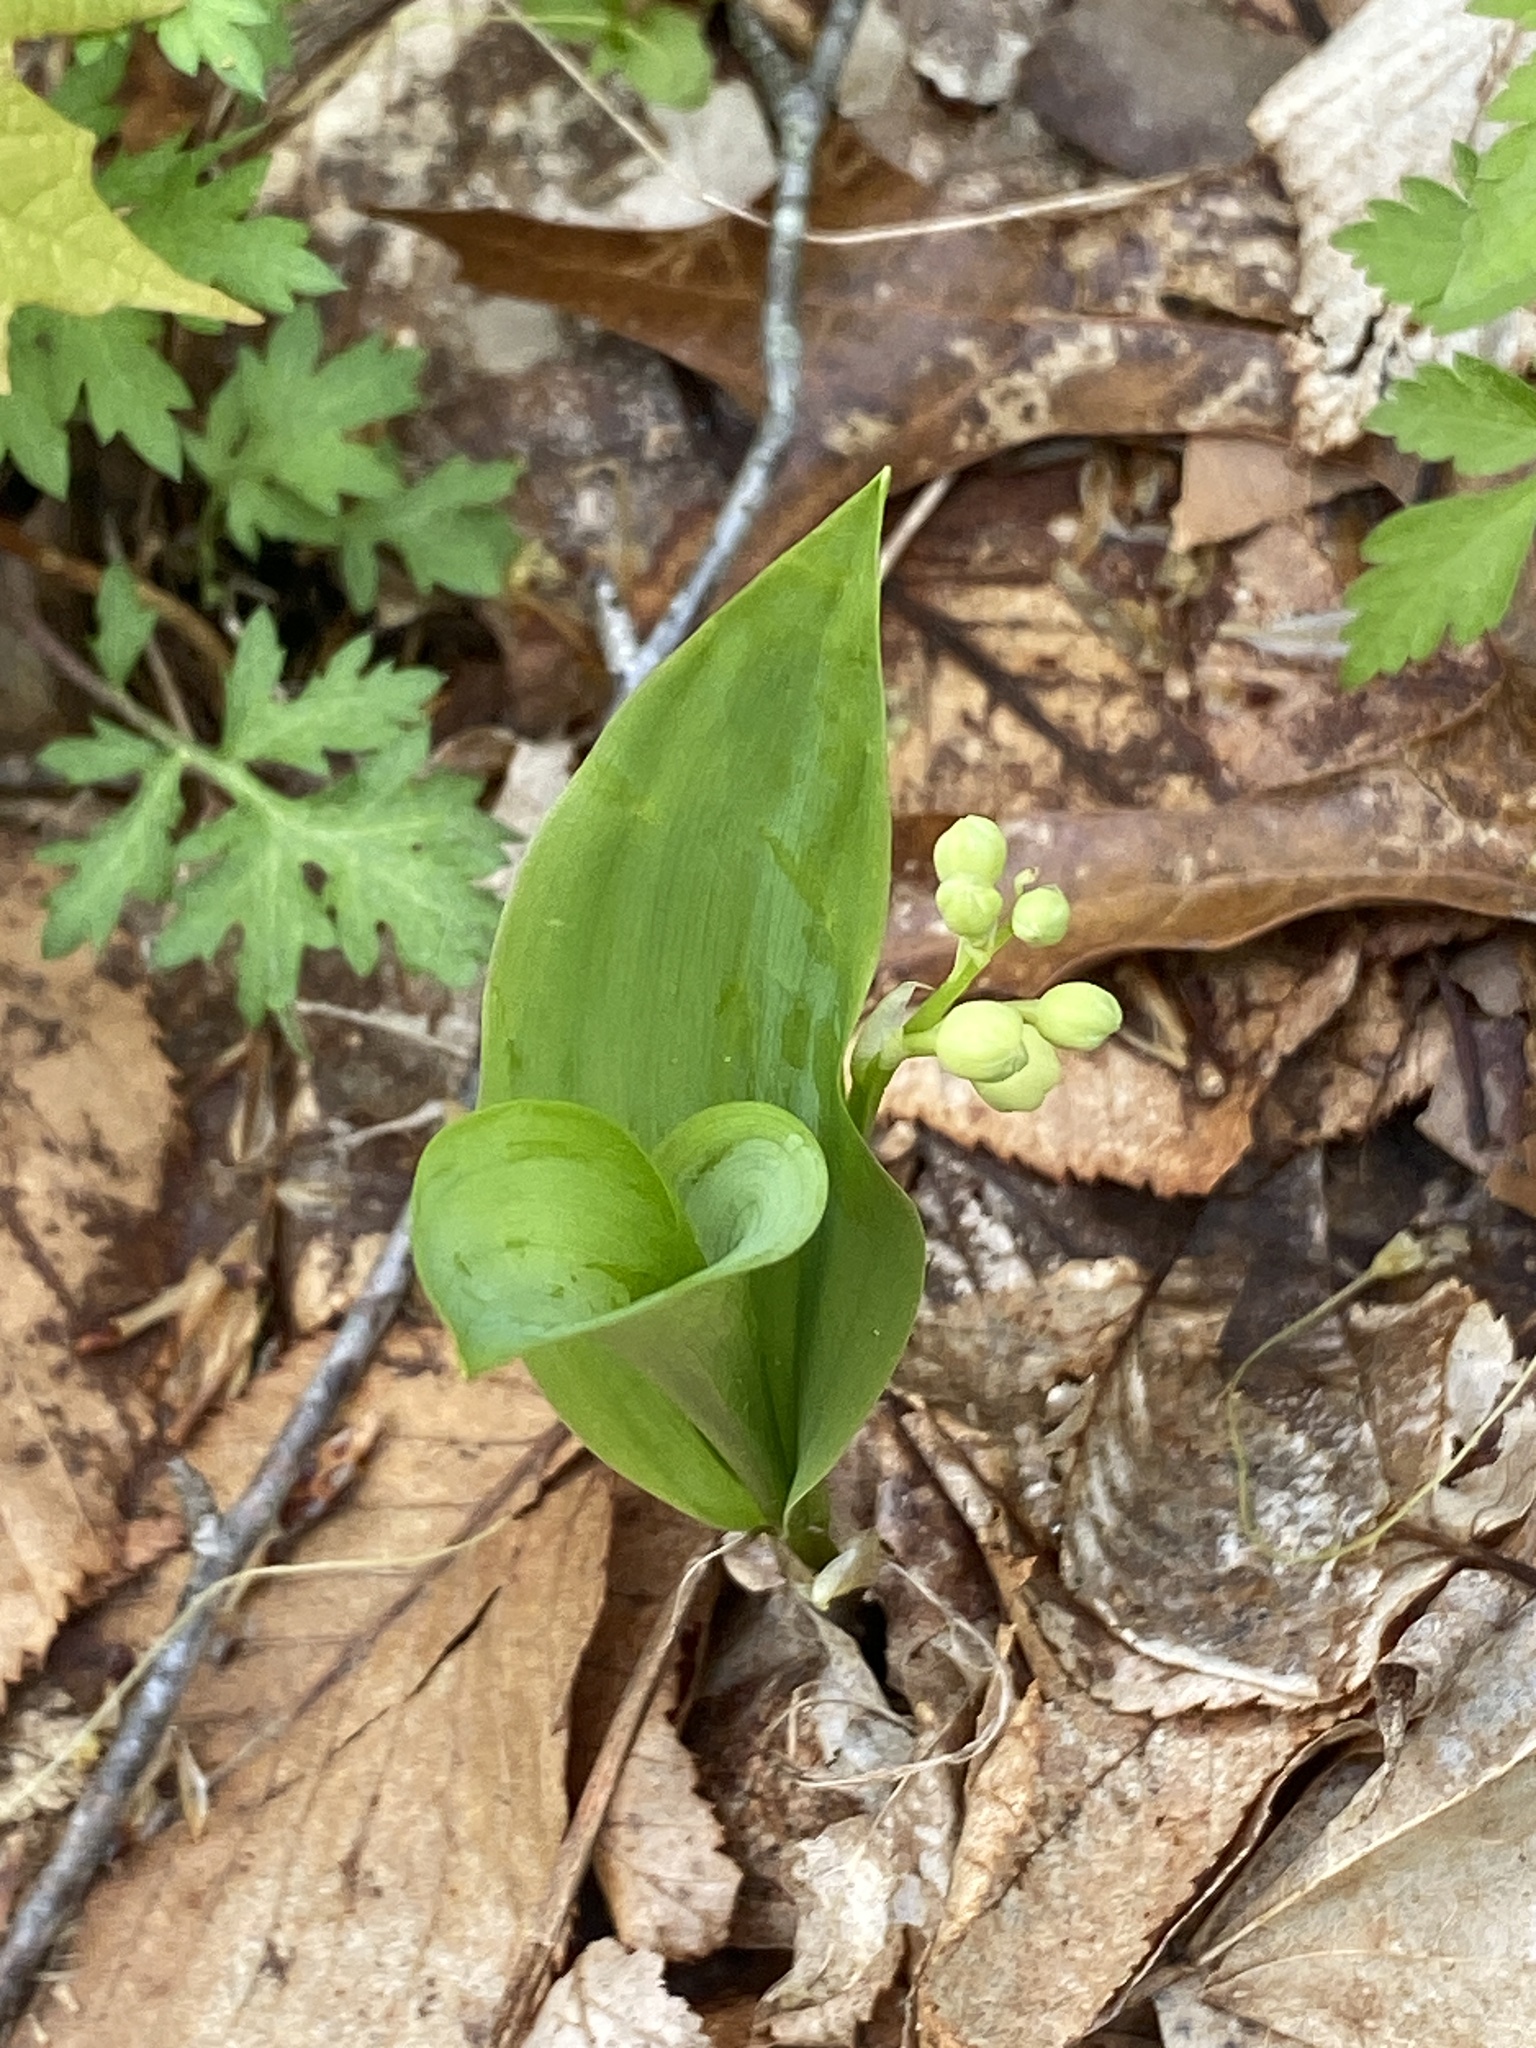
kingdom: Plantae
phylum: Tracheophyta
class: Liliopsida
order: Asparagales
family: Asparagaceae
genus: Convallaria
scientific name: Convallaria majalis
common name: Lily-of-the-valley
